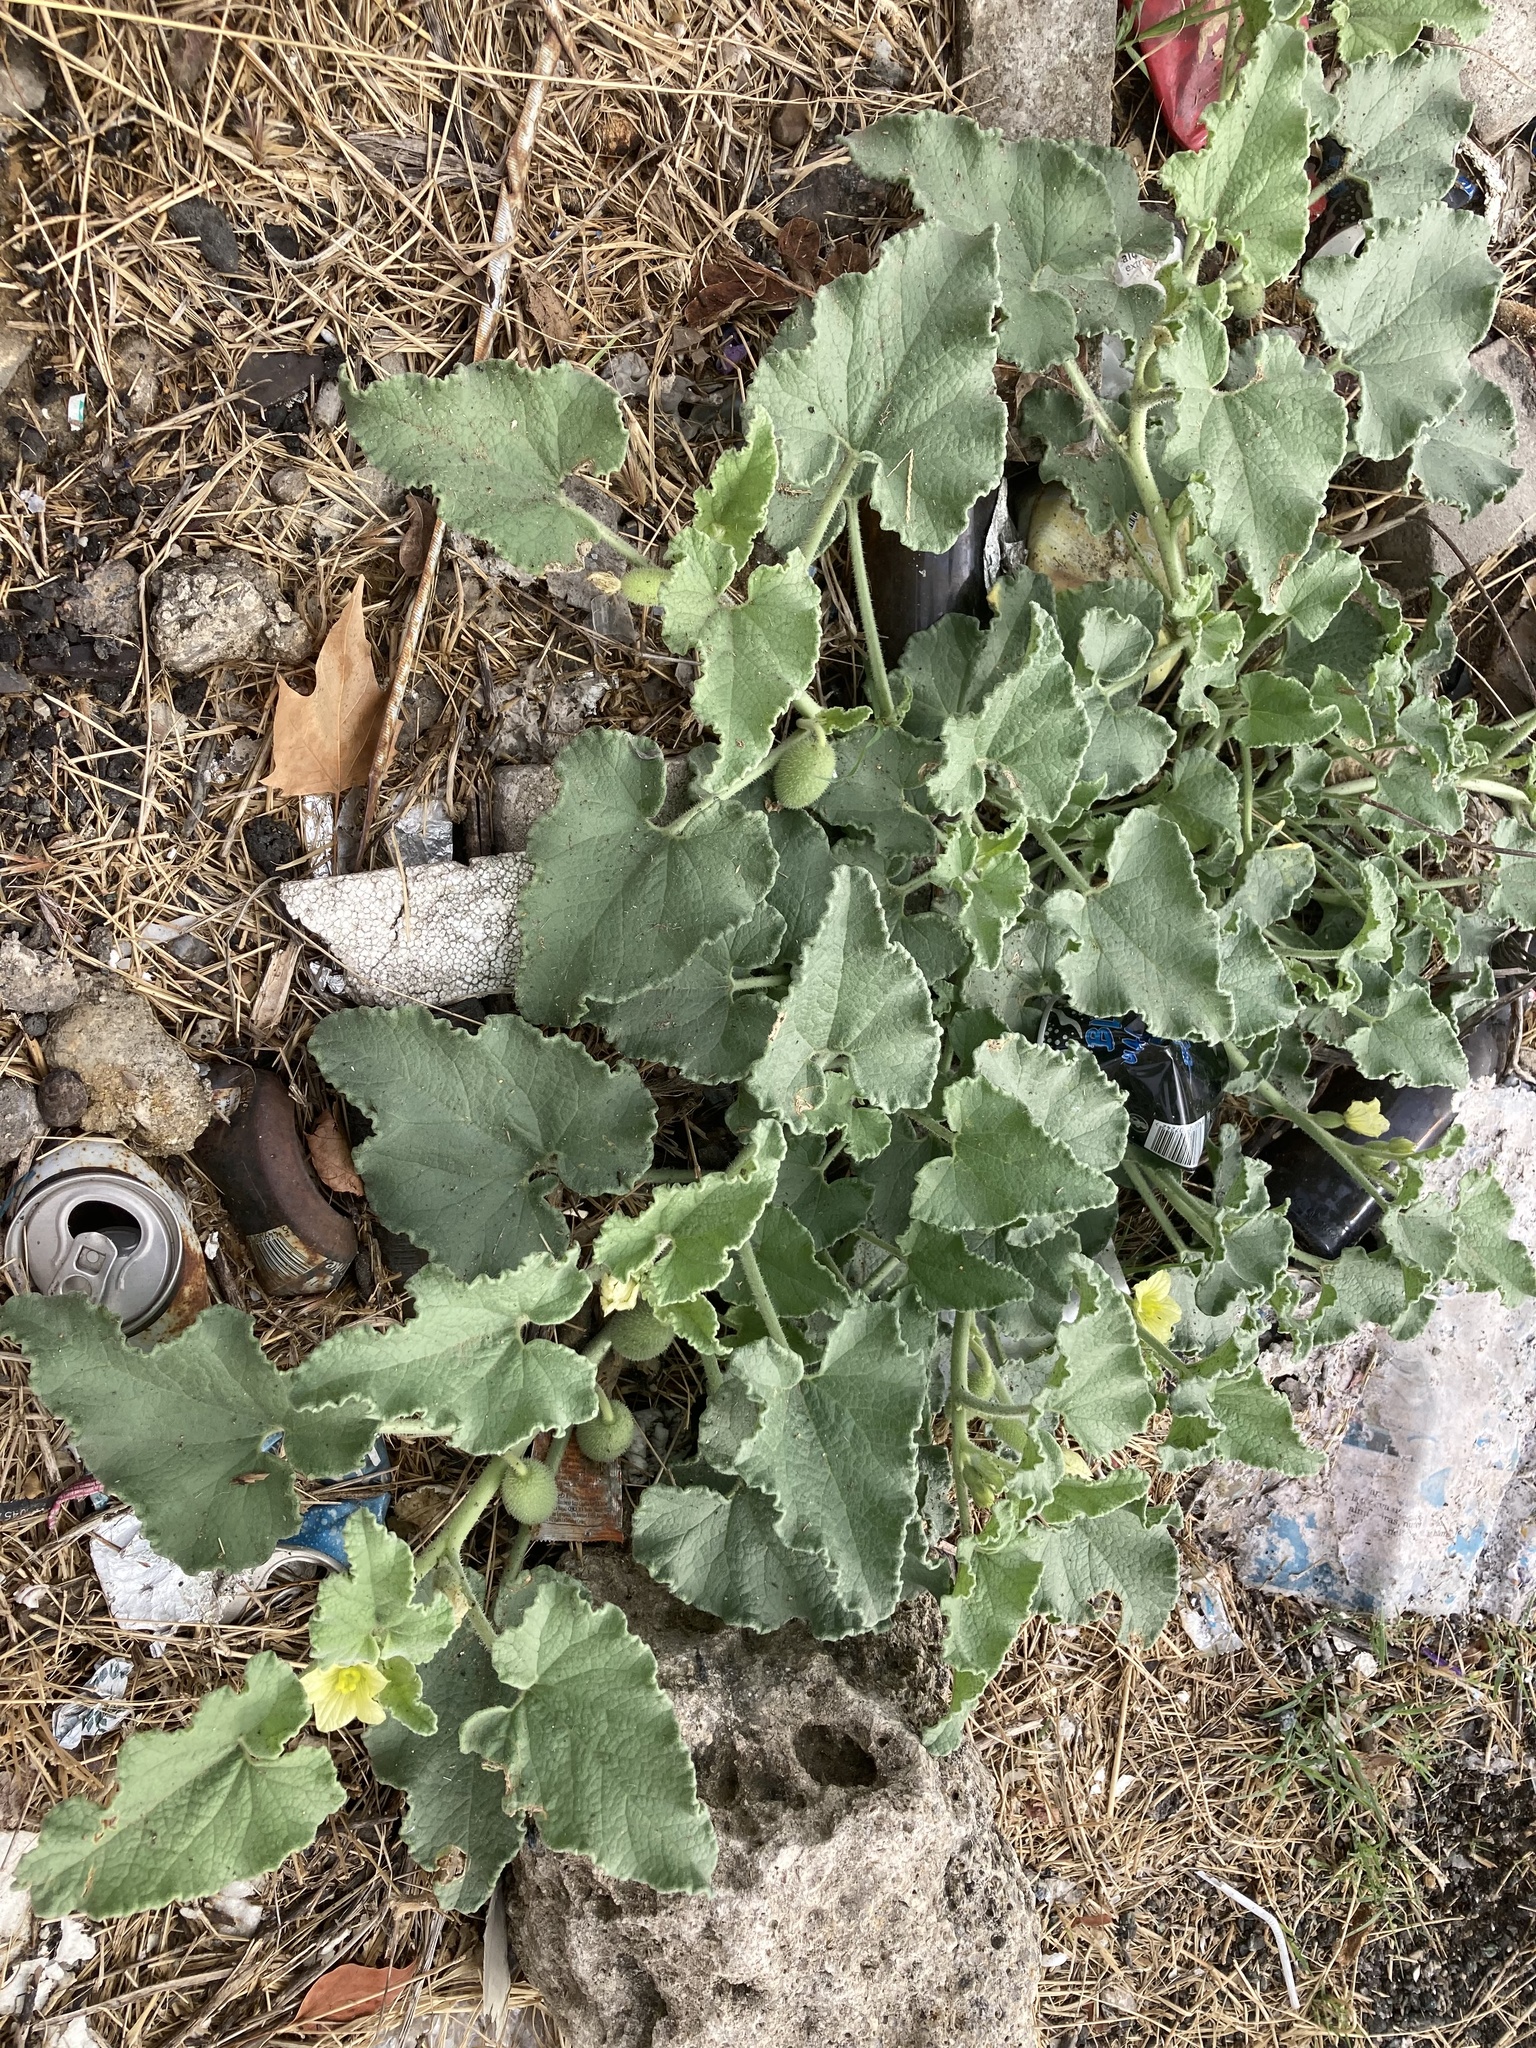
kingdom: Plantae
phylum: Tracheophyta
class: Magnoliopsida
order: Cucurbitales
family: Cucurbitaceae
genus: Ecballium
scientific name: Ecballium elaterium
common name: Squirting cucumber
